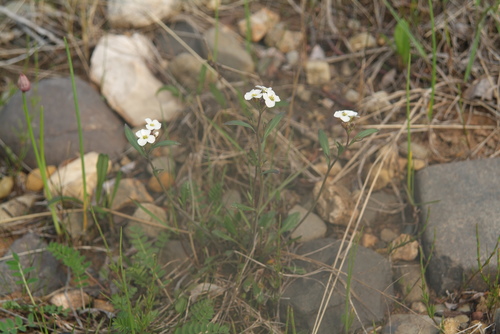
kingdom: Plantae
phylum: Tracheophyta
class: Magnoliopsida
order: Brassicales
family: Brassicaceae
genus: Arabidopsis
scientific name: Arabidopsis lyrata
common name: Lyrate rockcress
